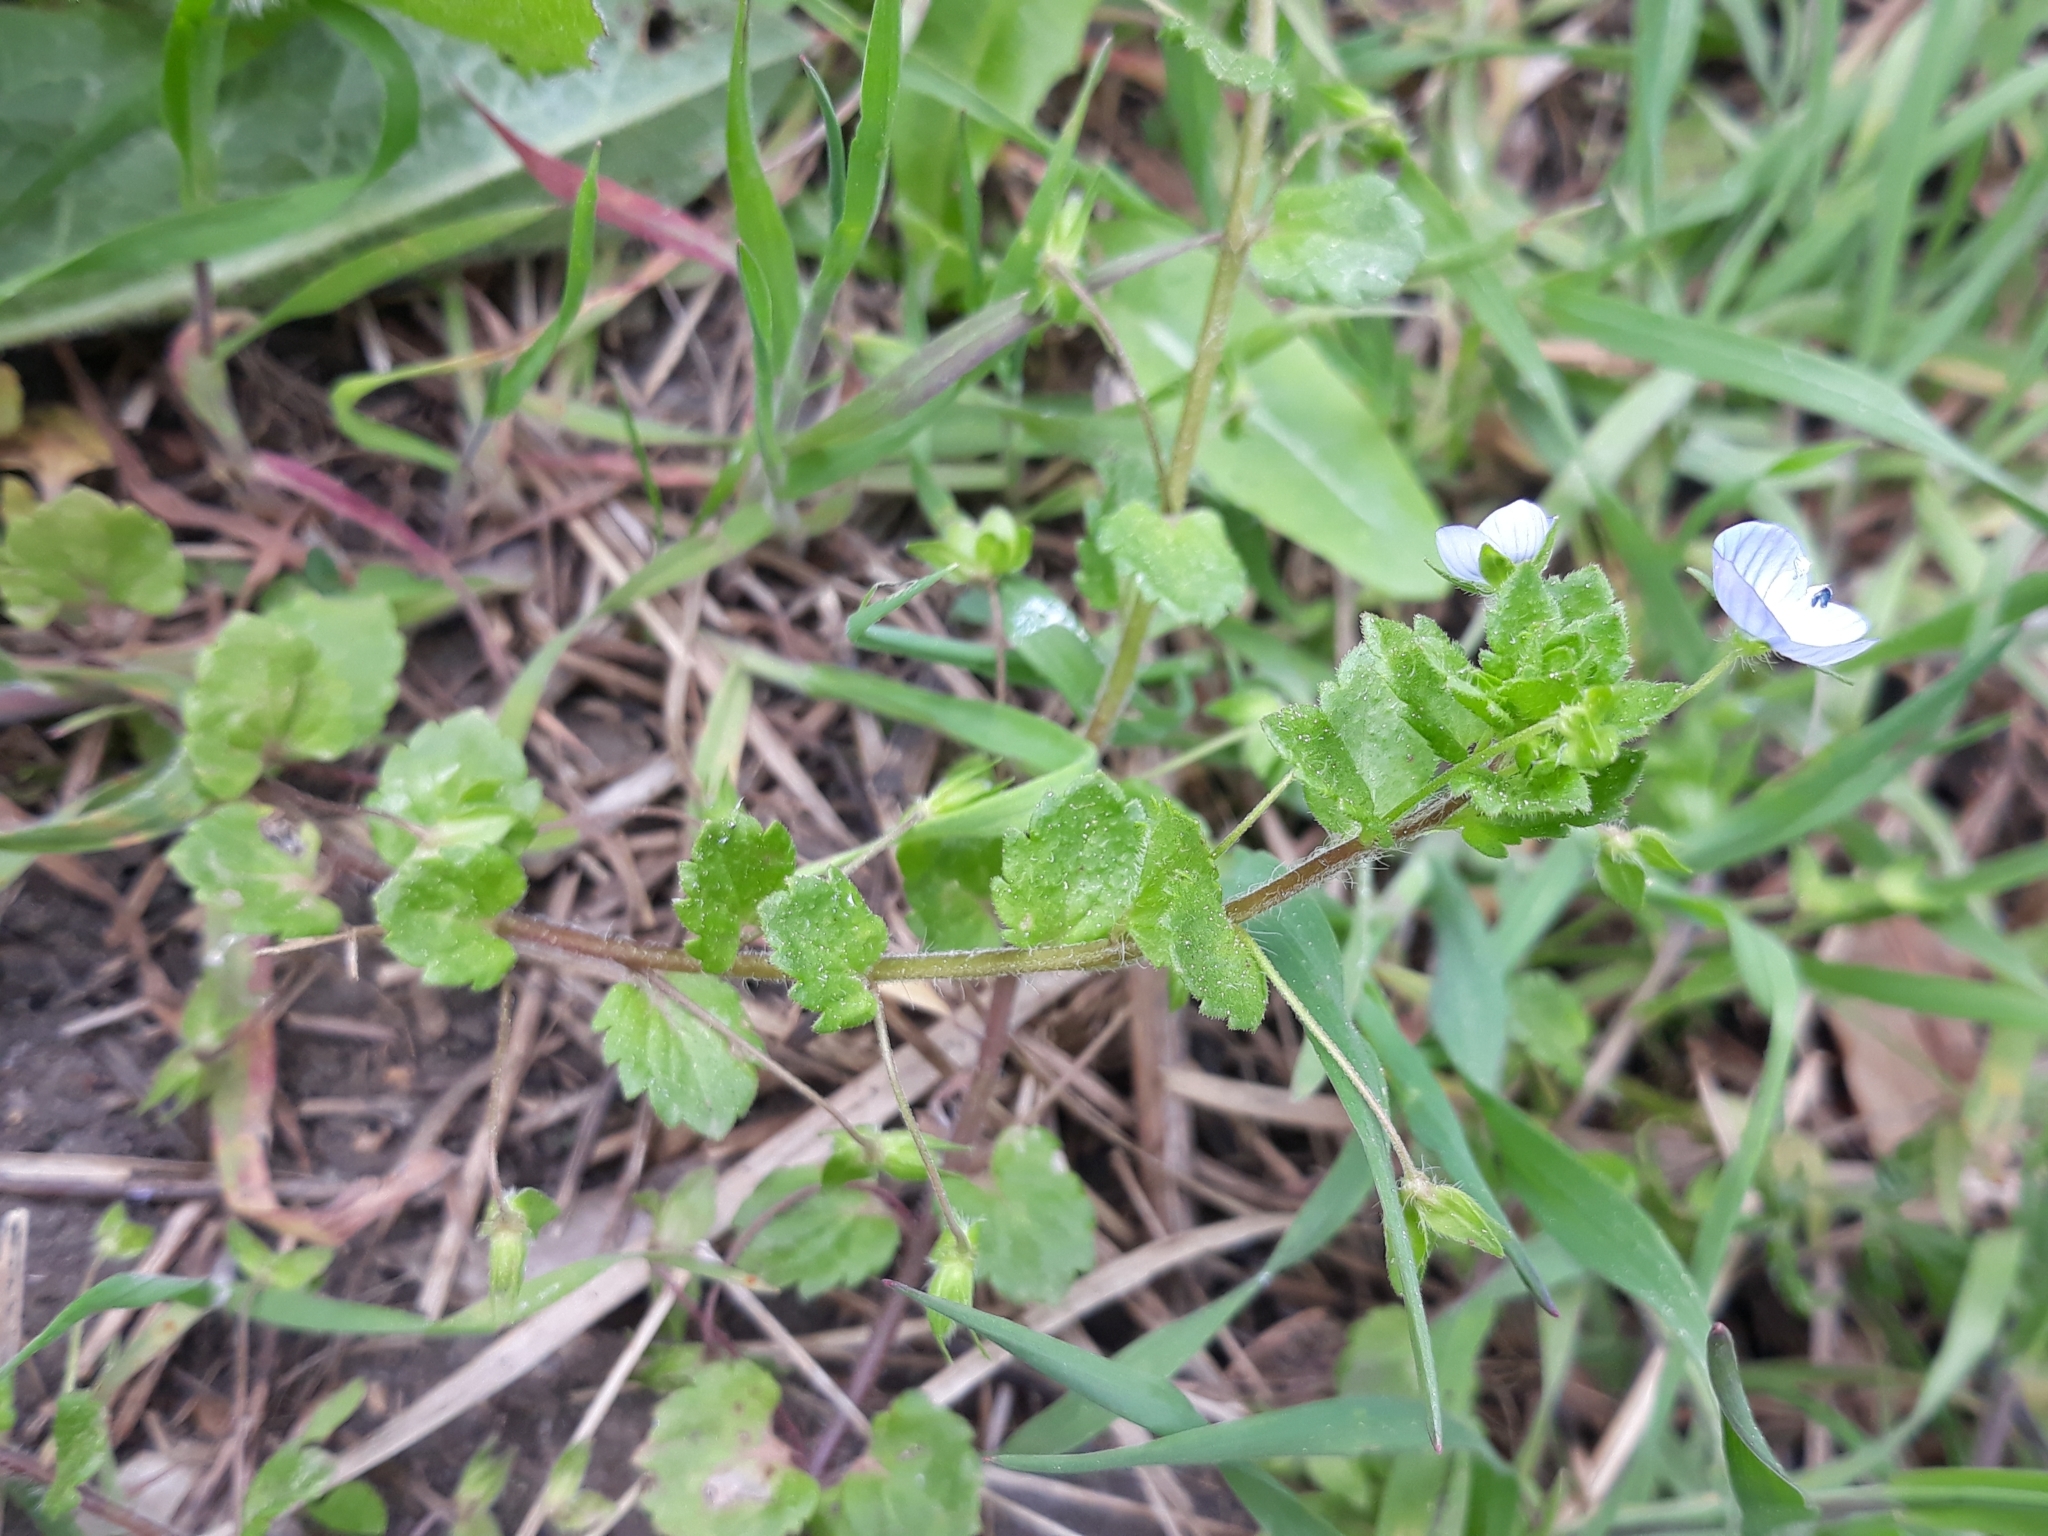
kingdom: Plantae
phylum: Tracheophyta
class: Magnoliopsida
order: Lamiales
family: Plantaginaceae
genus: Veronica
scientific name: Veronica persica
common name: Common field-speedwell
